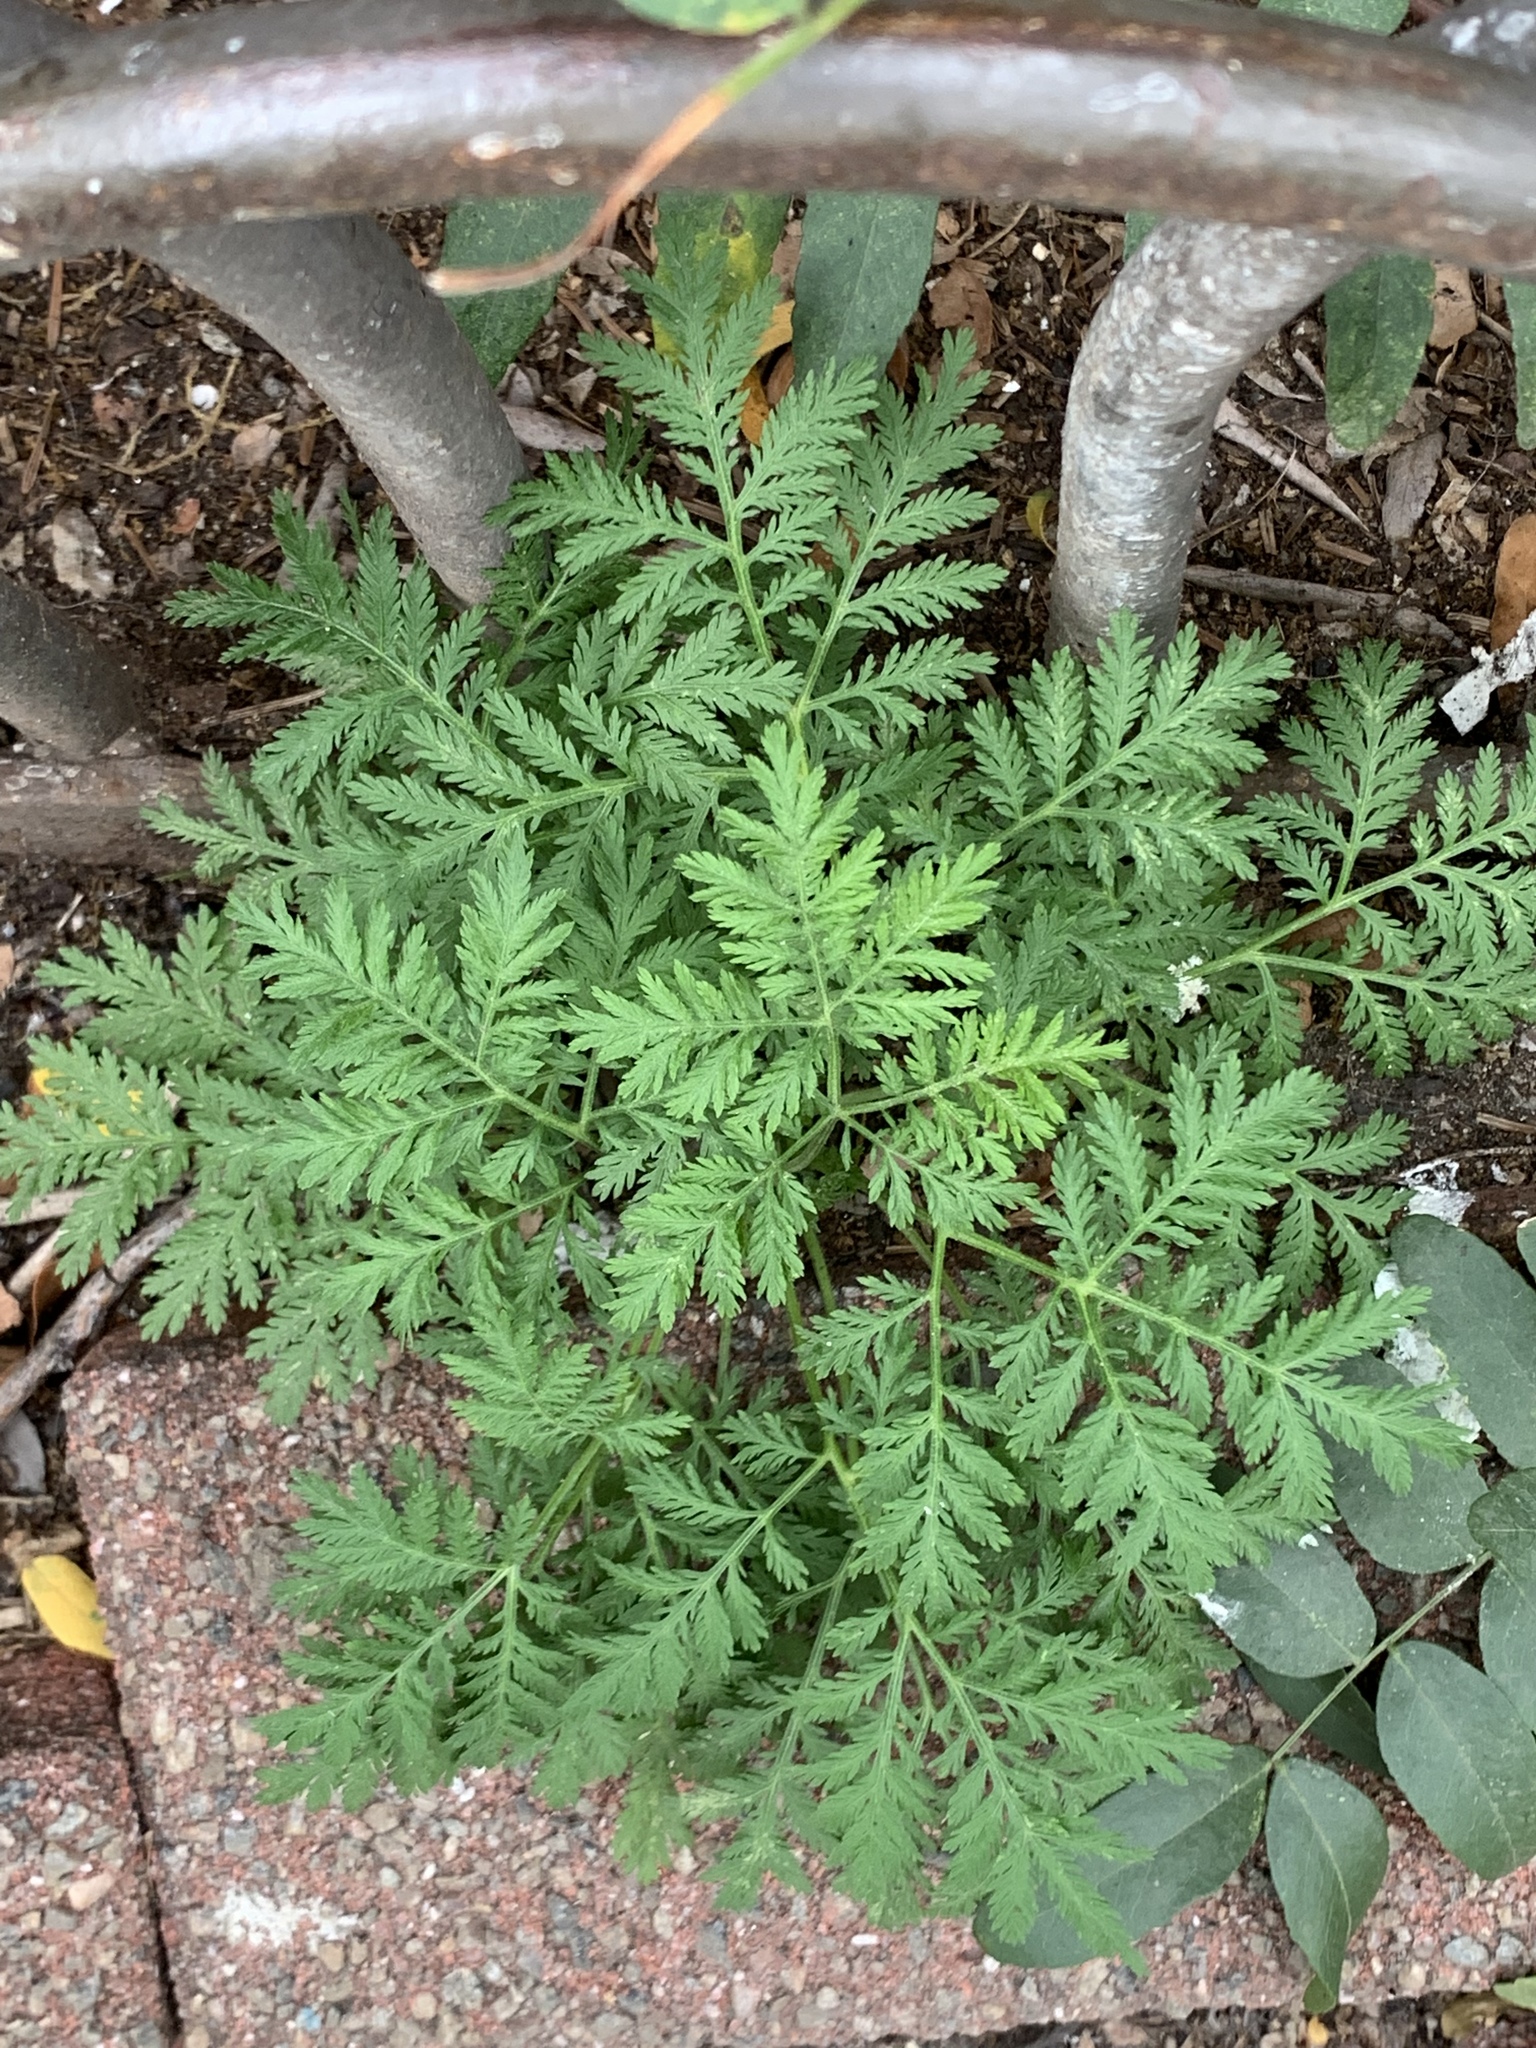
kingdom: Plantae
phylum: Tracheophyta
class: Magnoliopsida
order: Asterales
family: Asteraceae
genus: Artemisia
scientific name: Artemisia annua
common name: Sweet sagewort
